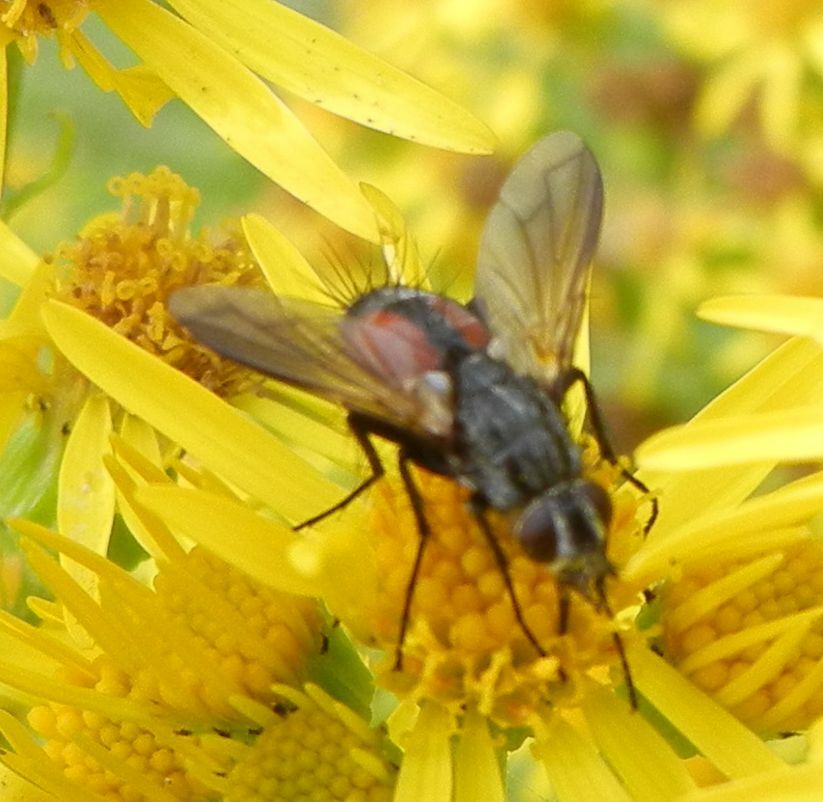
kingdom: Animalia
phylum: Arthropoda
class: Insecta
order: Diptera
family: Tachinidae
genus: Eriothrix
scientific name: Eriothrix rufomaculatus
